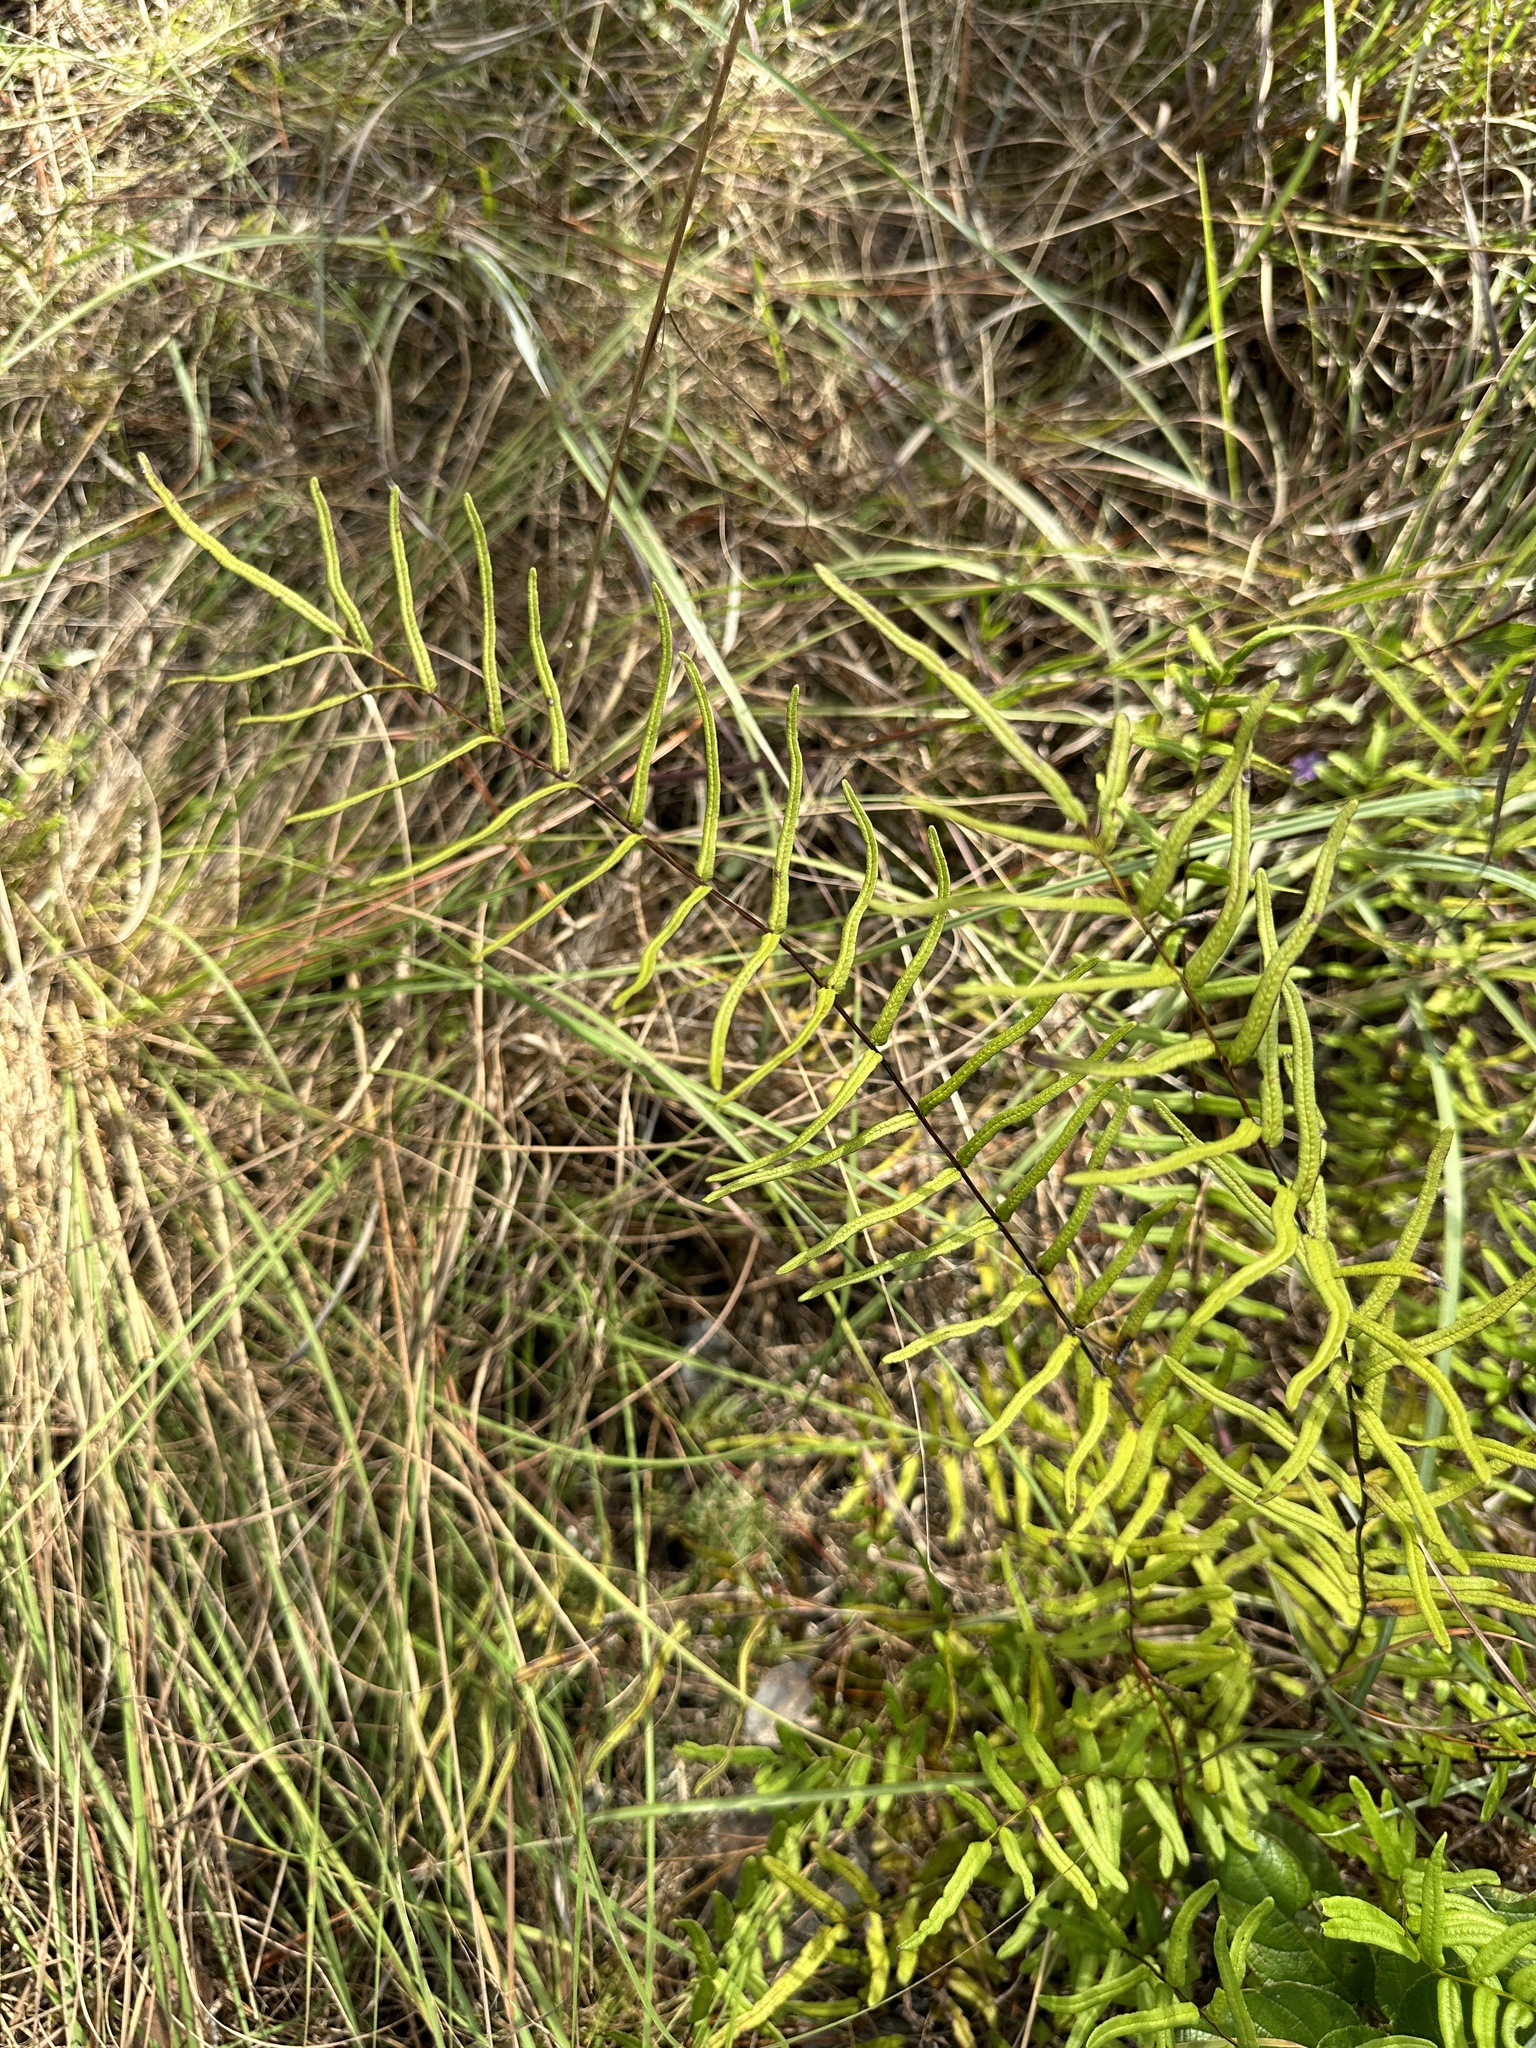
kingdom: Plantae
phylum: Tracheophyta
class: Polypodiopsida
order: Polypodiales
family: Pteridaceae
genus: Pteris
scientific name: Pteris bahamensis
